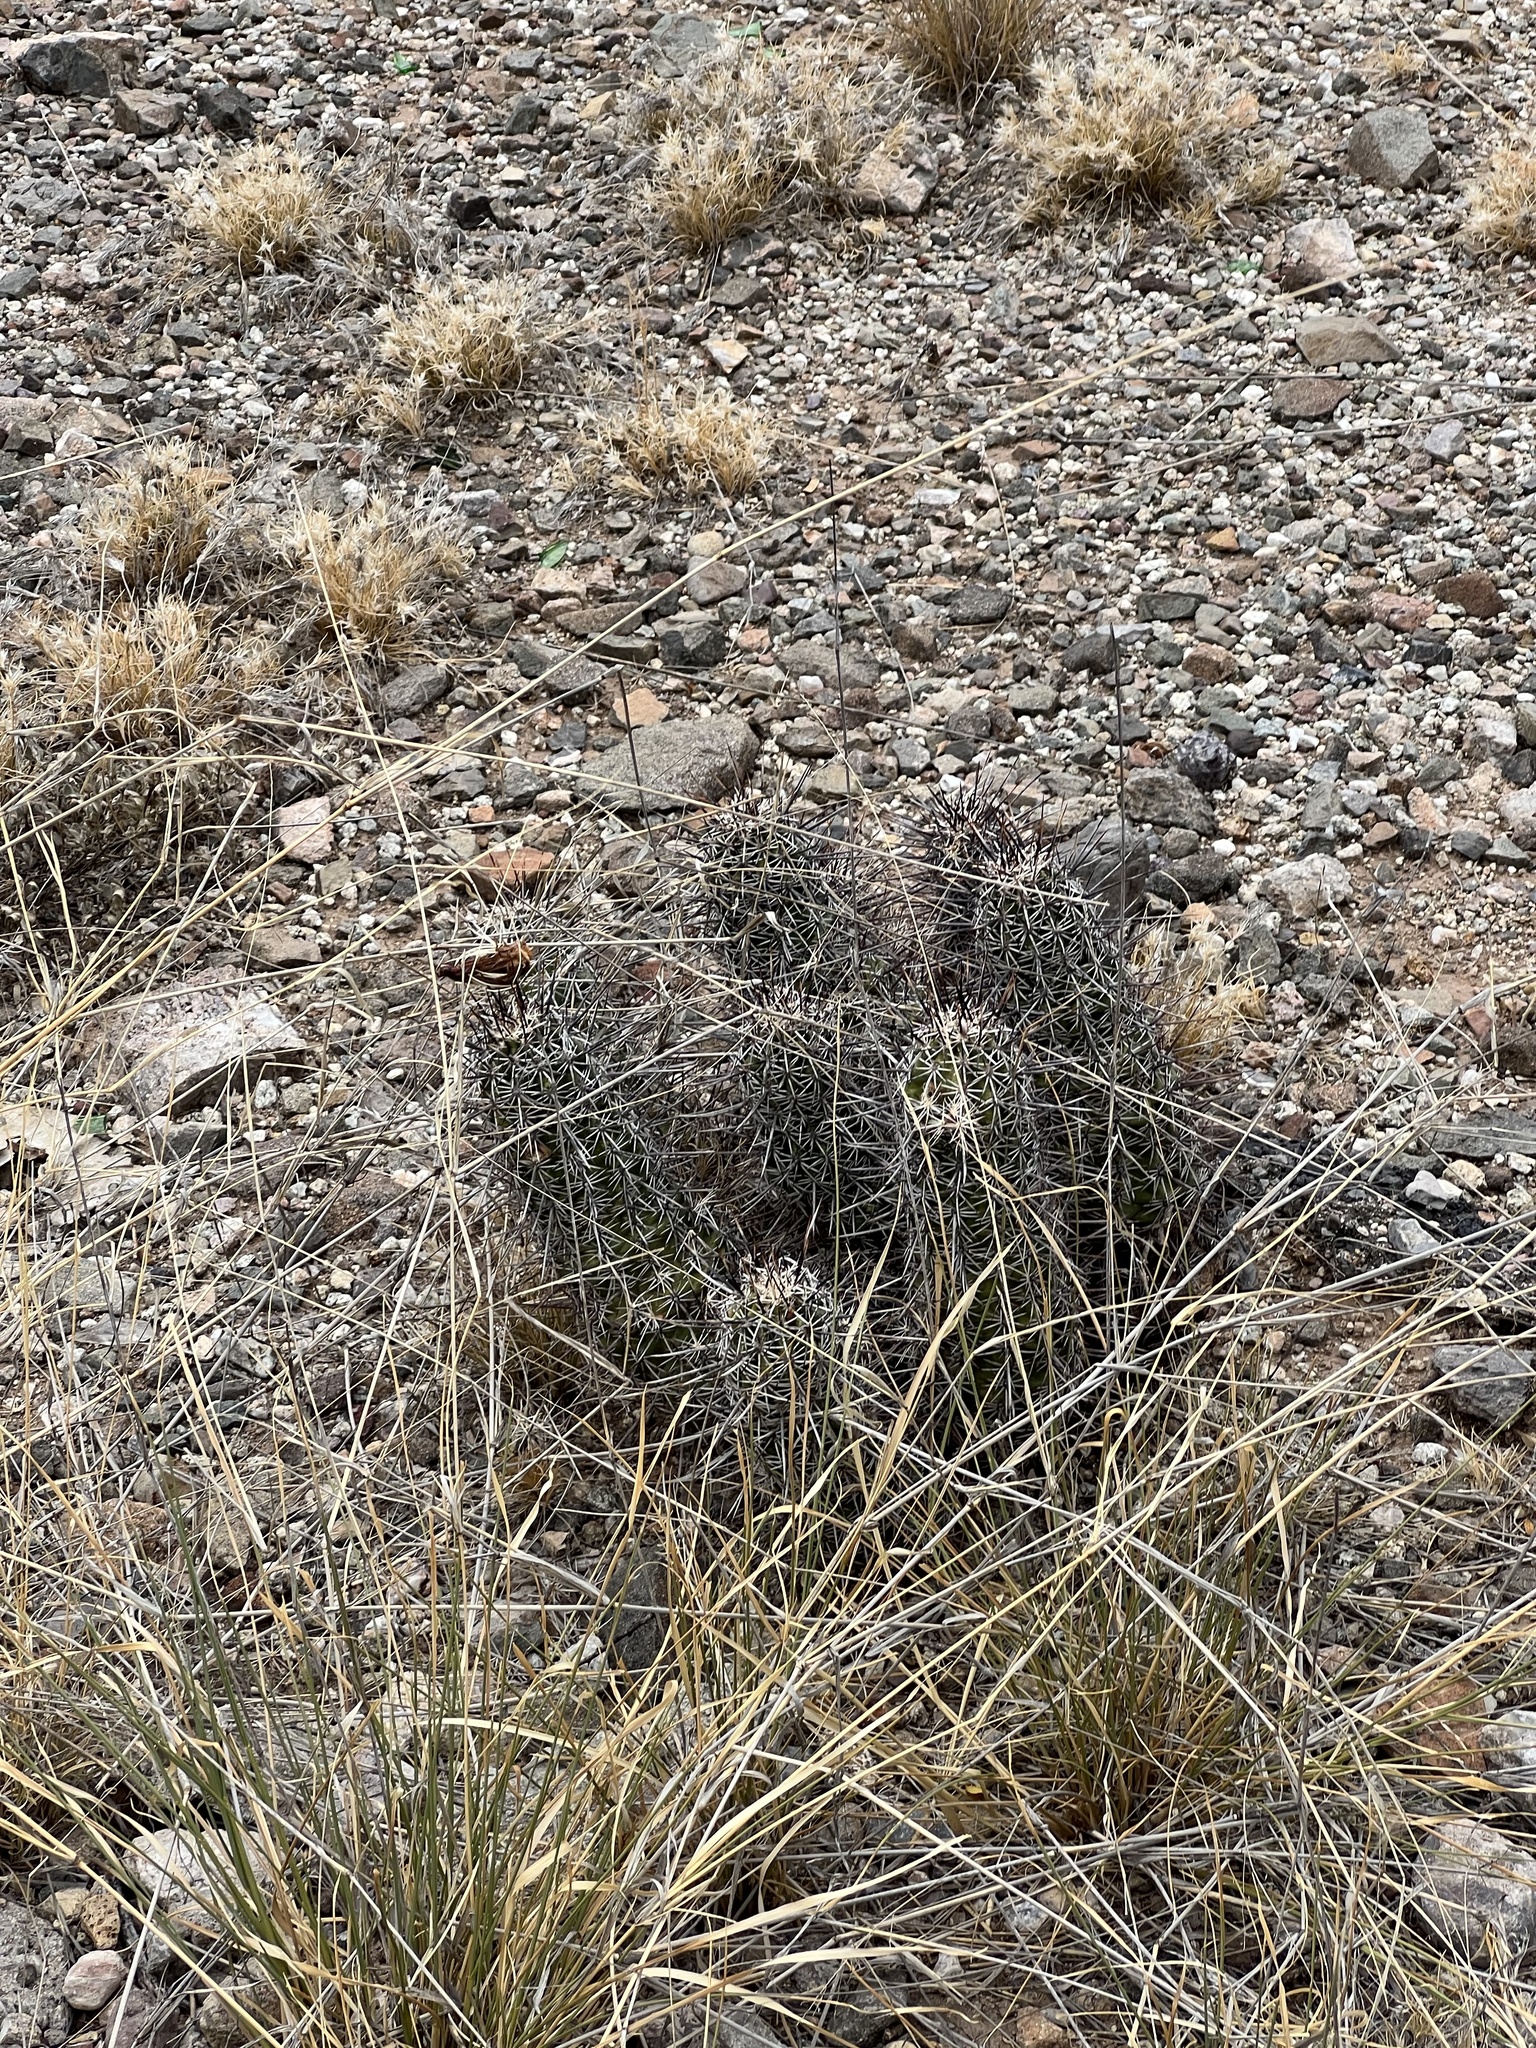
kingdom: Plantae
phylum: Tracheophyta
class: Magnoliopsida
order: Caryophyllales
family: Cactaceae
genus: Echinocereus
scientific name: Echinocereus fasciculatus
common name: Bundle hedgehog
